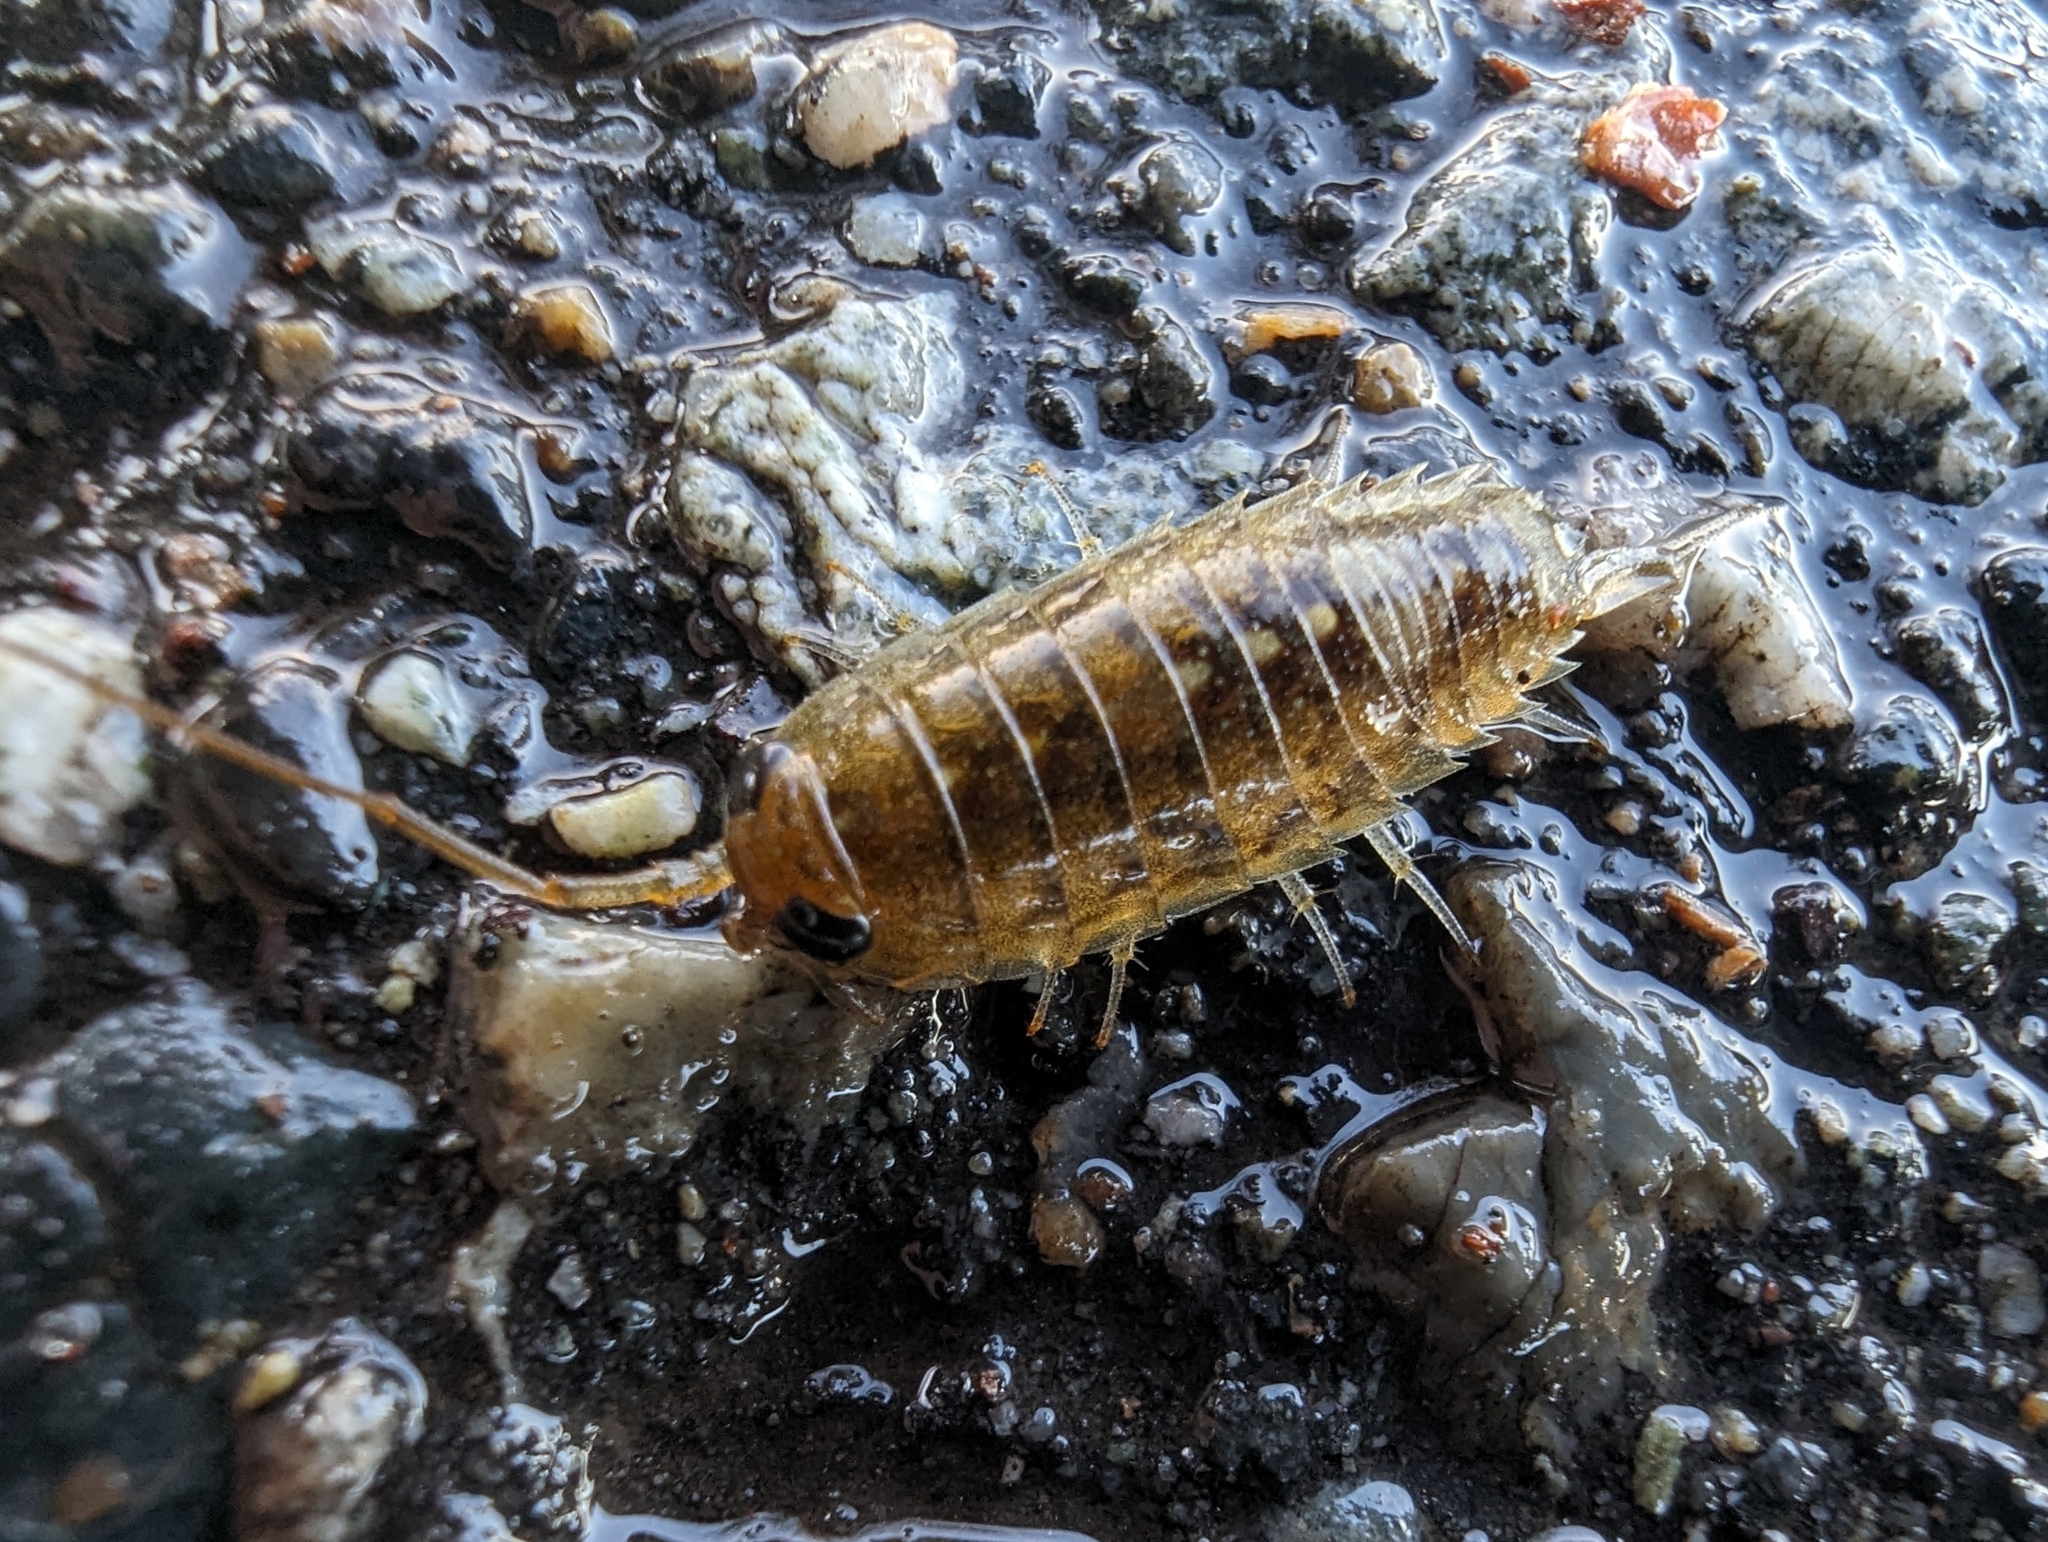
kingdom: Animalia
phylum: Arthropoda
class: Malacostraca
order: Isopoda
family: Ligiidae
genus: Ligia
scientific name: Ligia occidentalis
